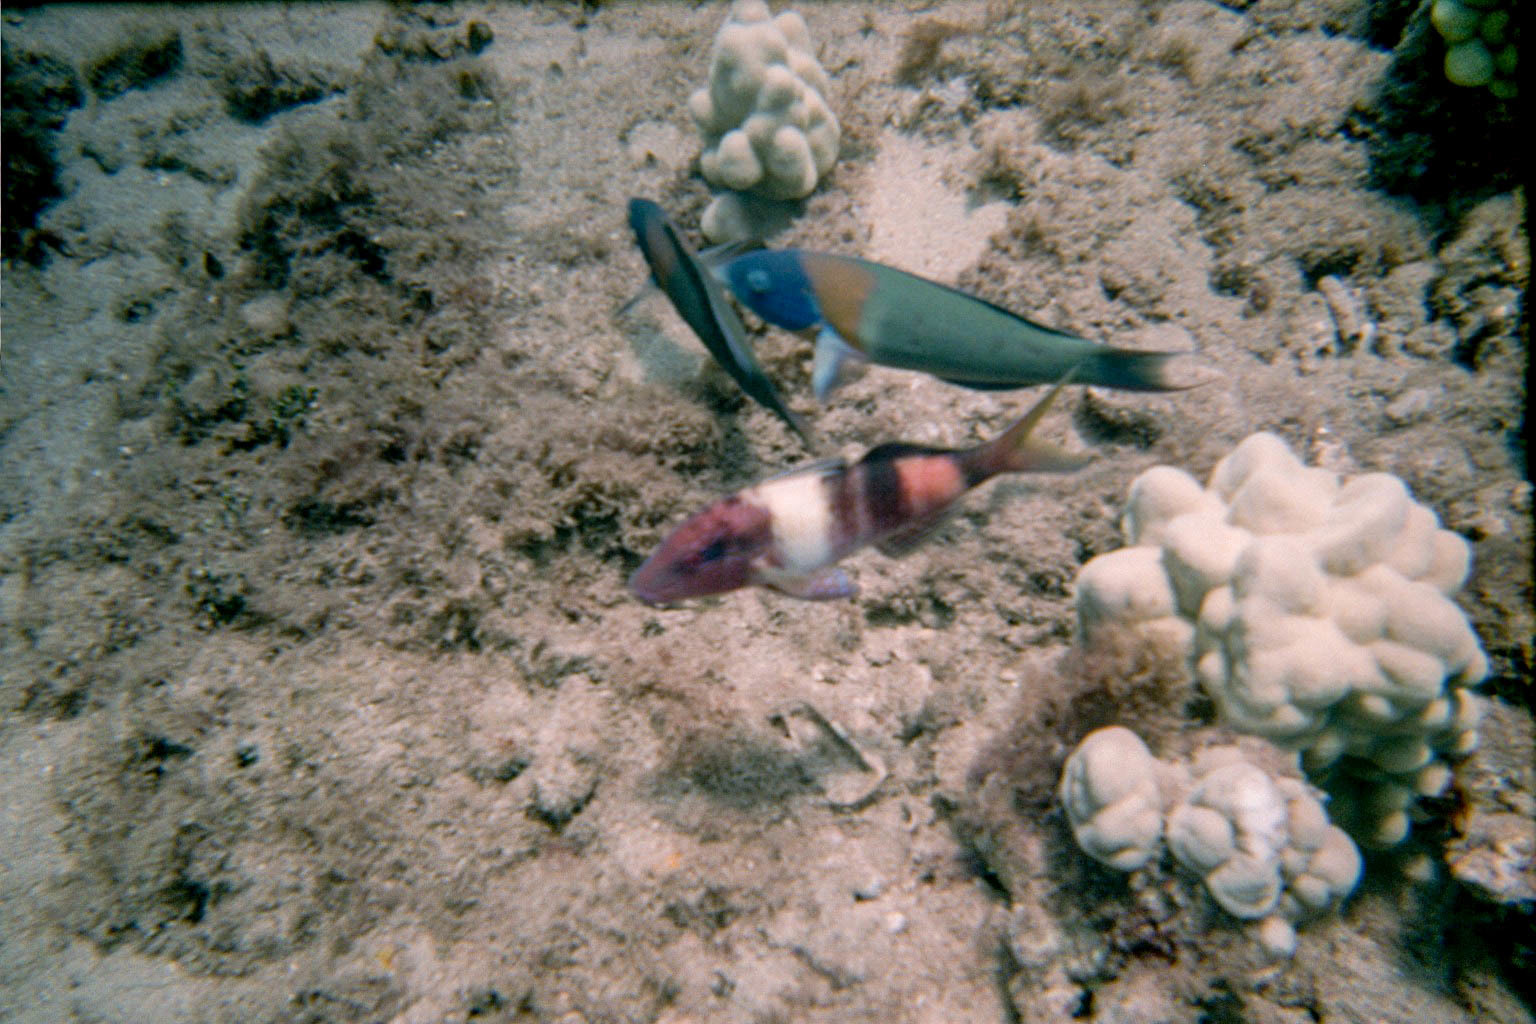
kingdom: Animalia
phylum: Chordata
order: Perciformes
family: Labridae
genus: Thalassoma
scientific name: Thalassoma duperrey
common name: Saddle wrasse
